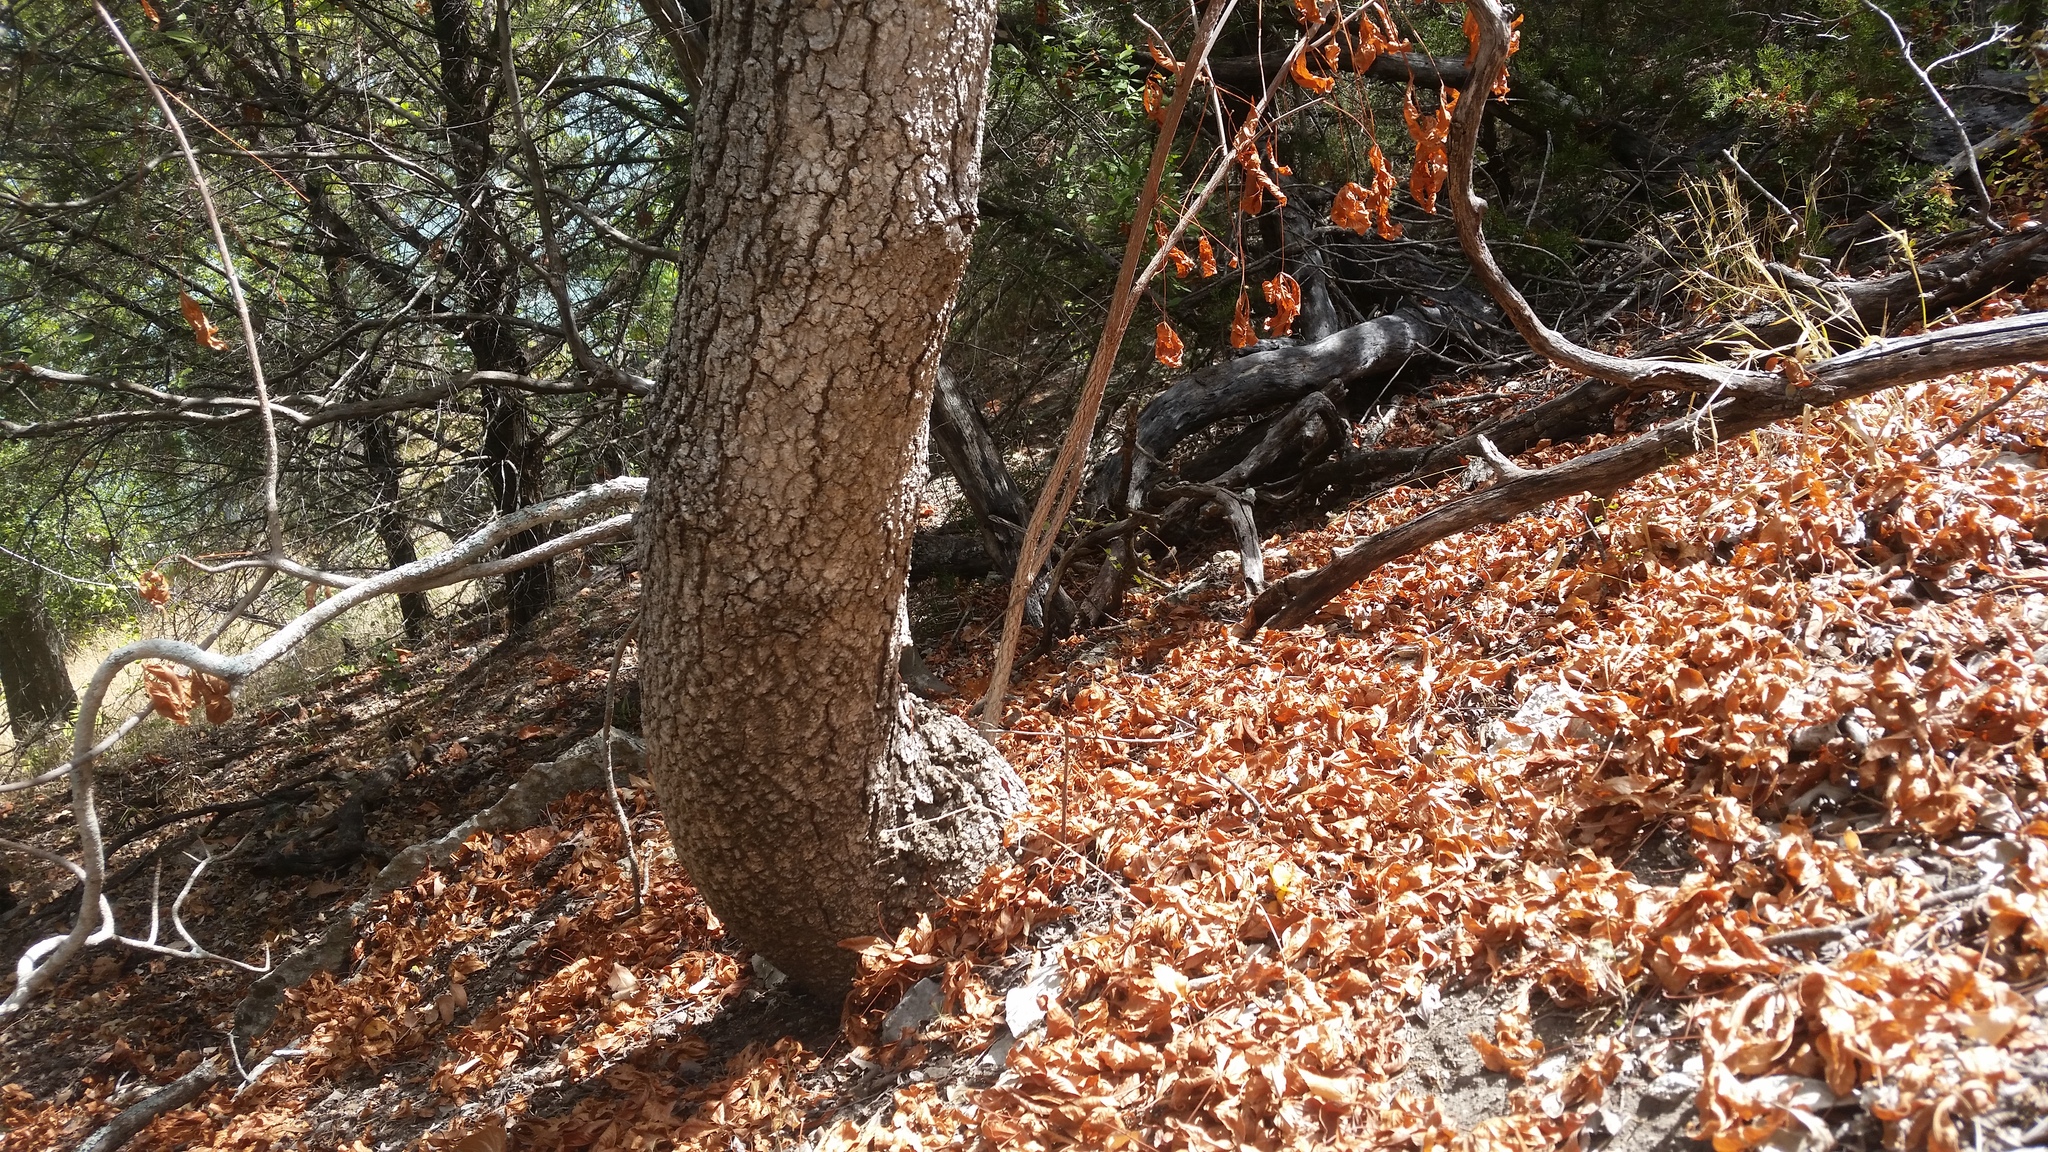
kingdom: Plantae
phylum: Tracheophyta
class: Magnoliopsida
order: Sapindales
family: Sapindaceae
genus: Aesculus
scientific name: Aesculus glabra
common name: Ohio buckeye
